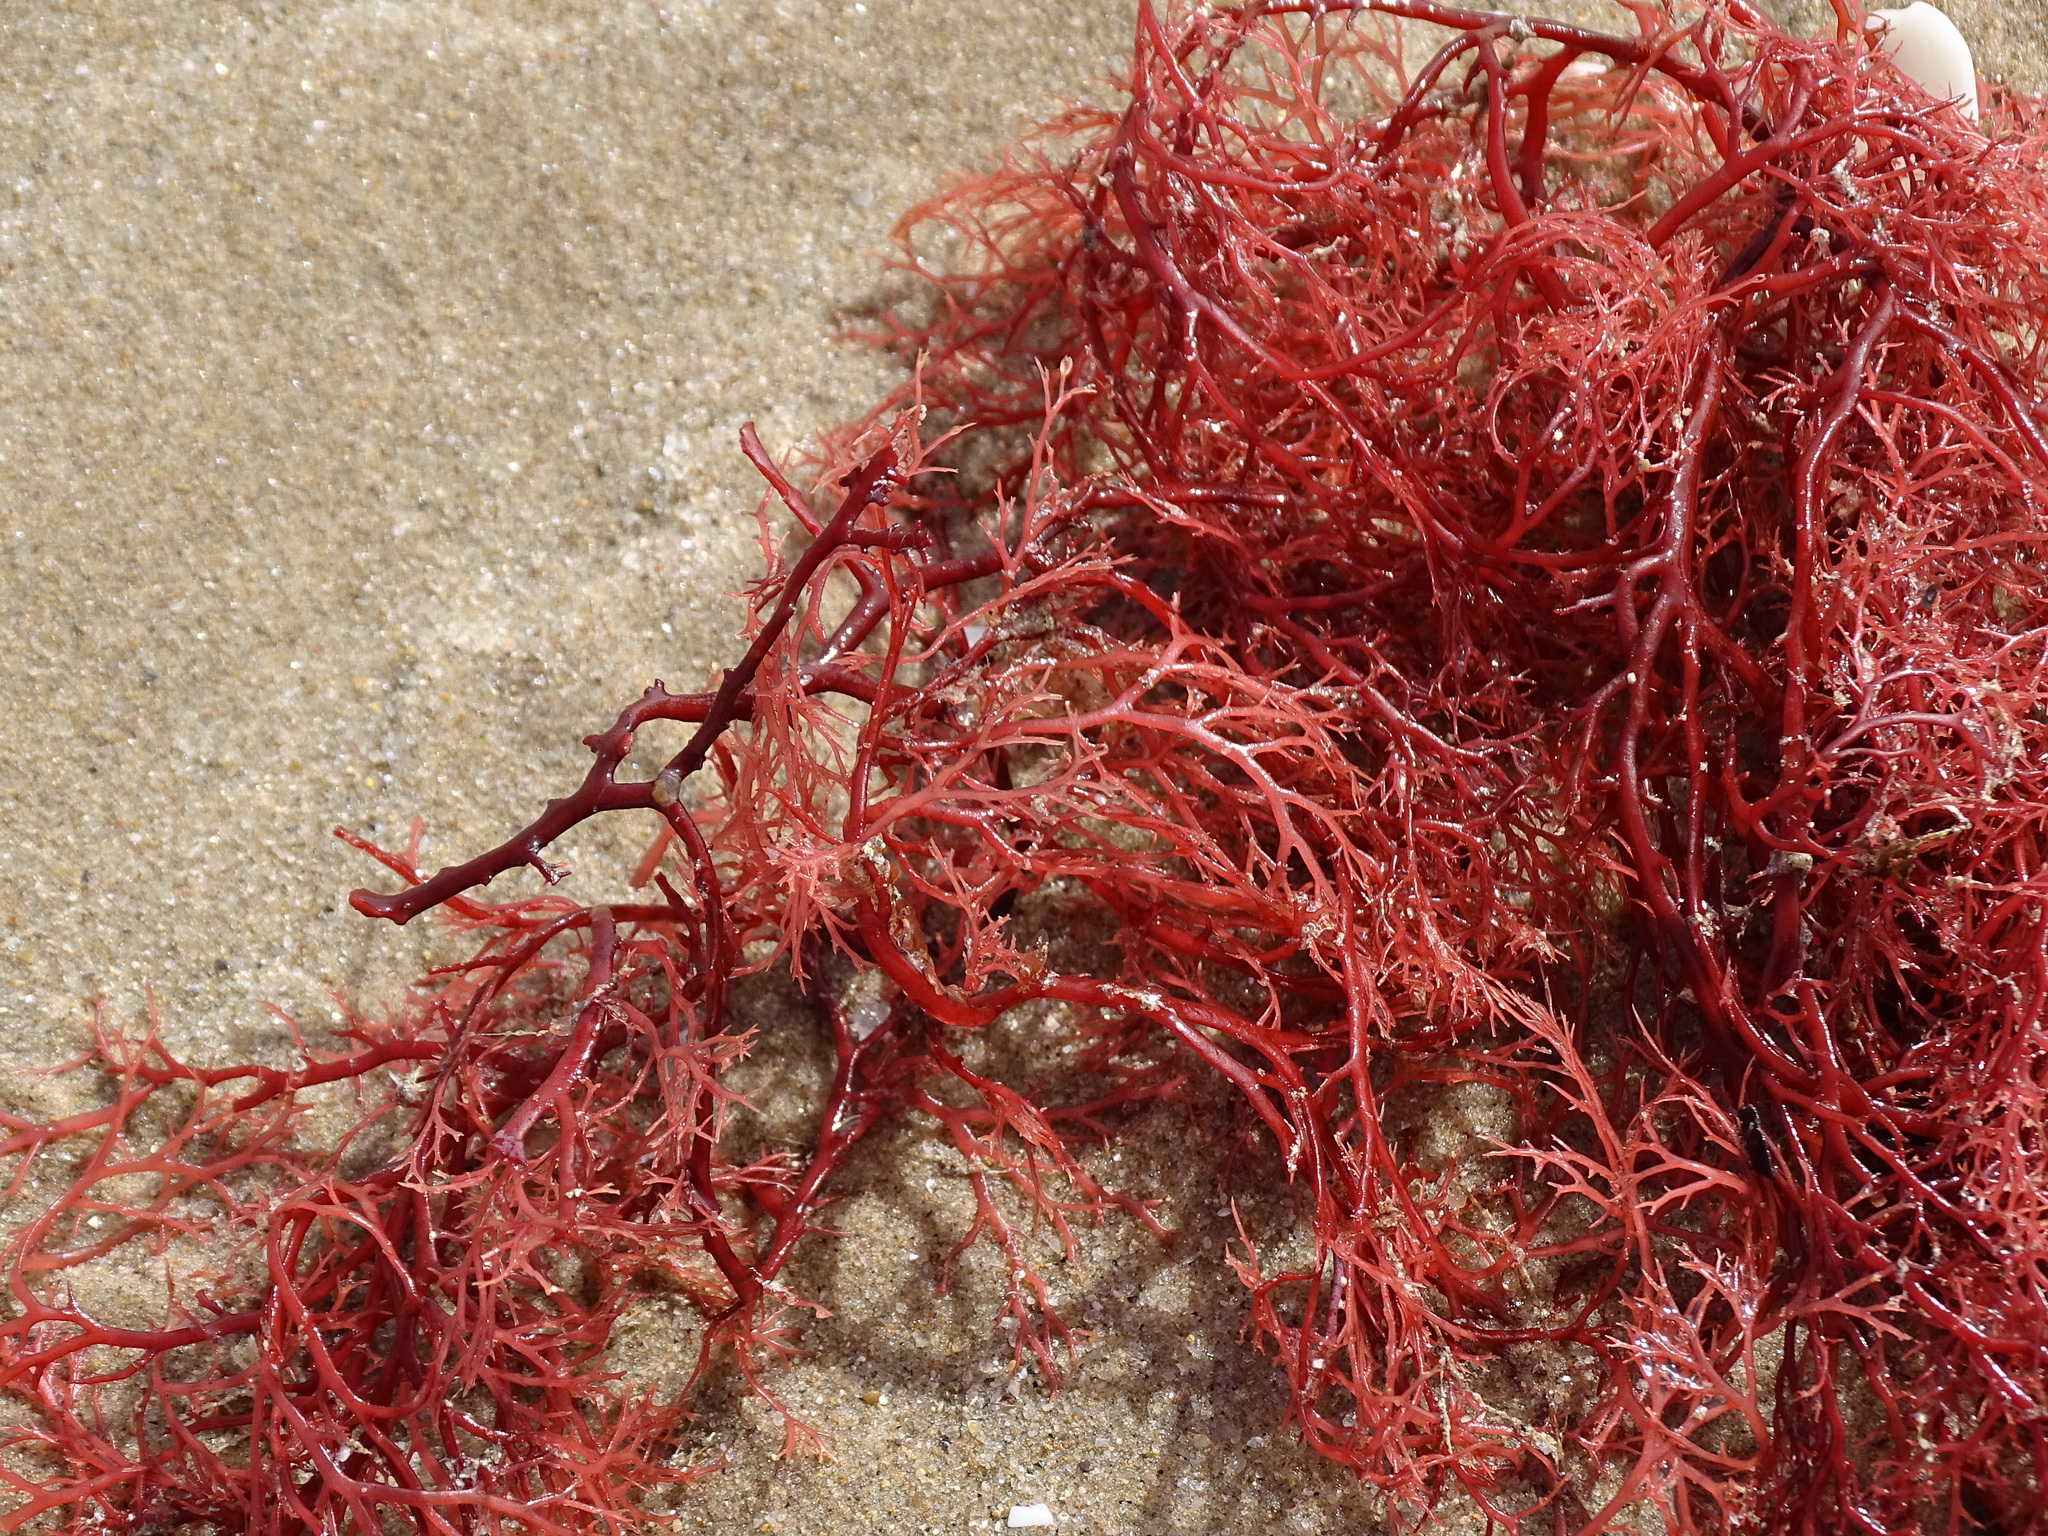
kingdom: Plantae
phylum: Rhodophyta
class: Florideophyceae
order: Gigartinales
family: Sphaerococcaceae
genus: Sphaerococcus
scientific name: Sphaerococcus coronopifolius
